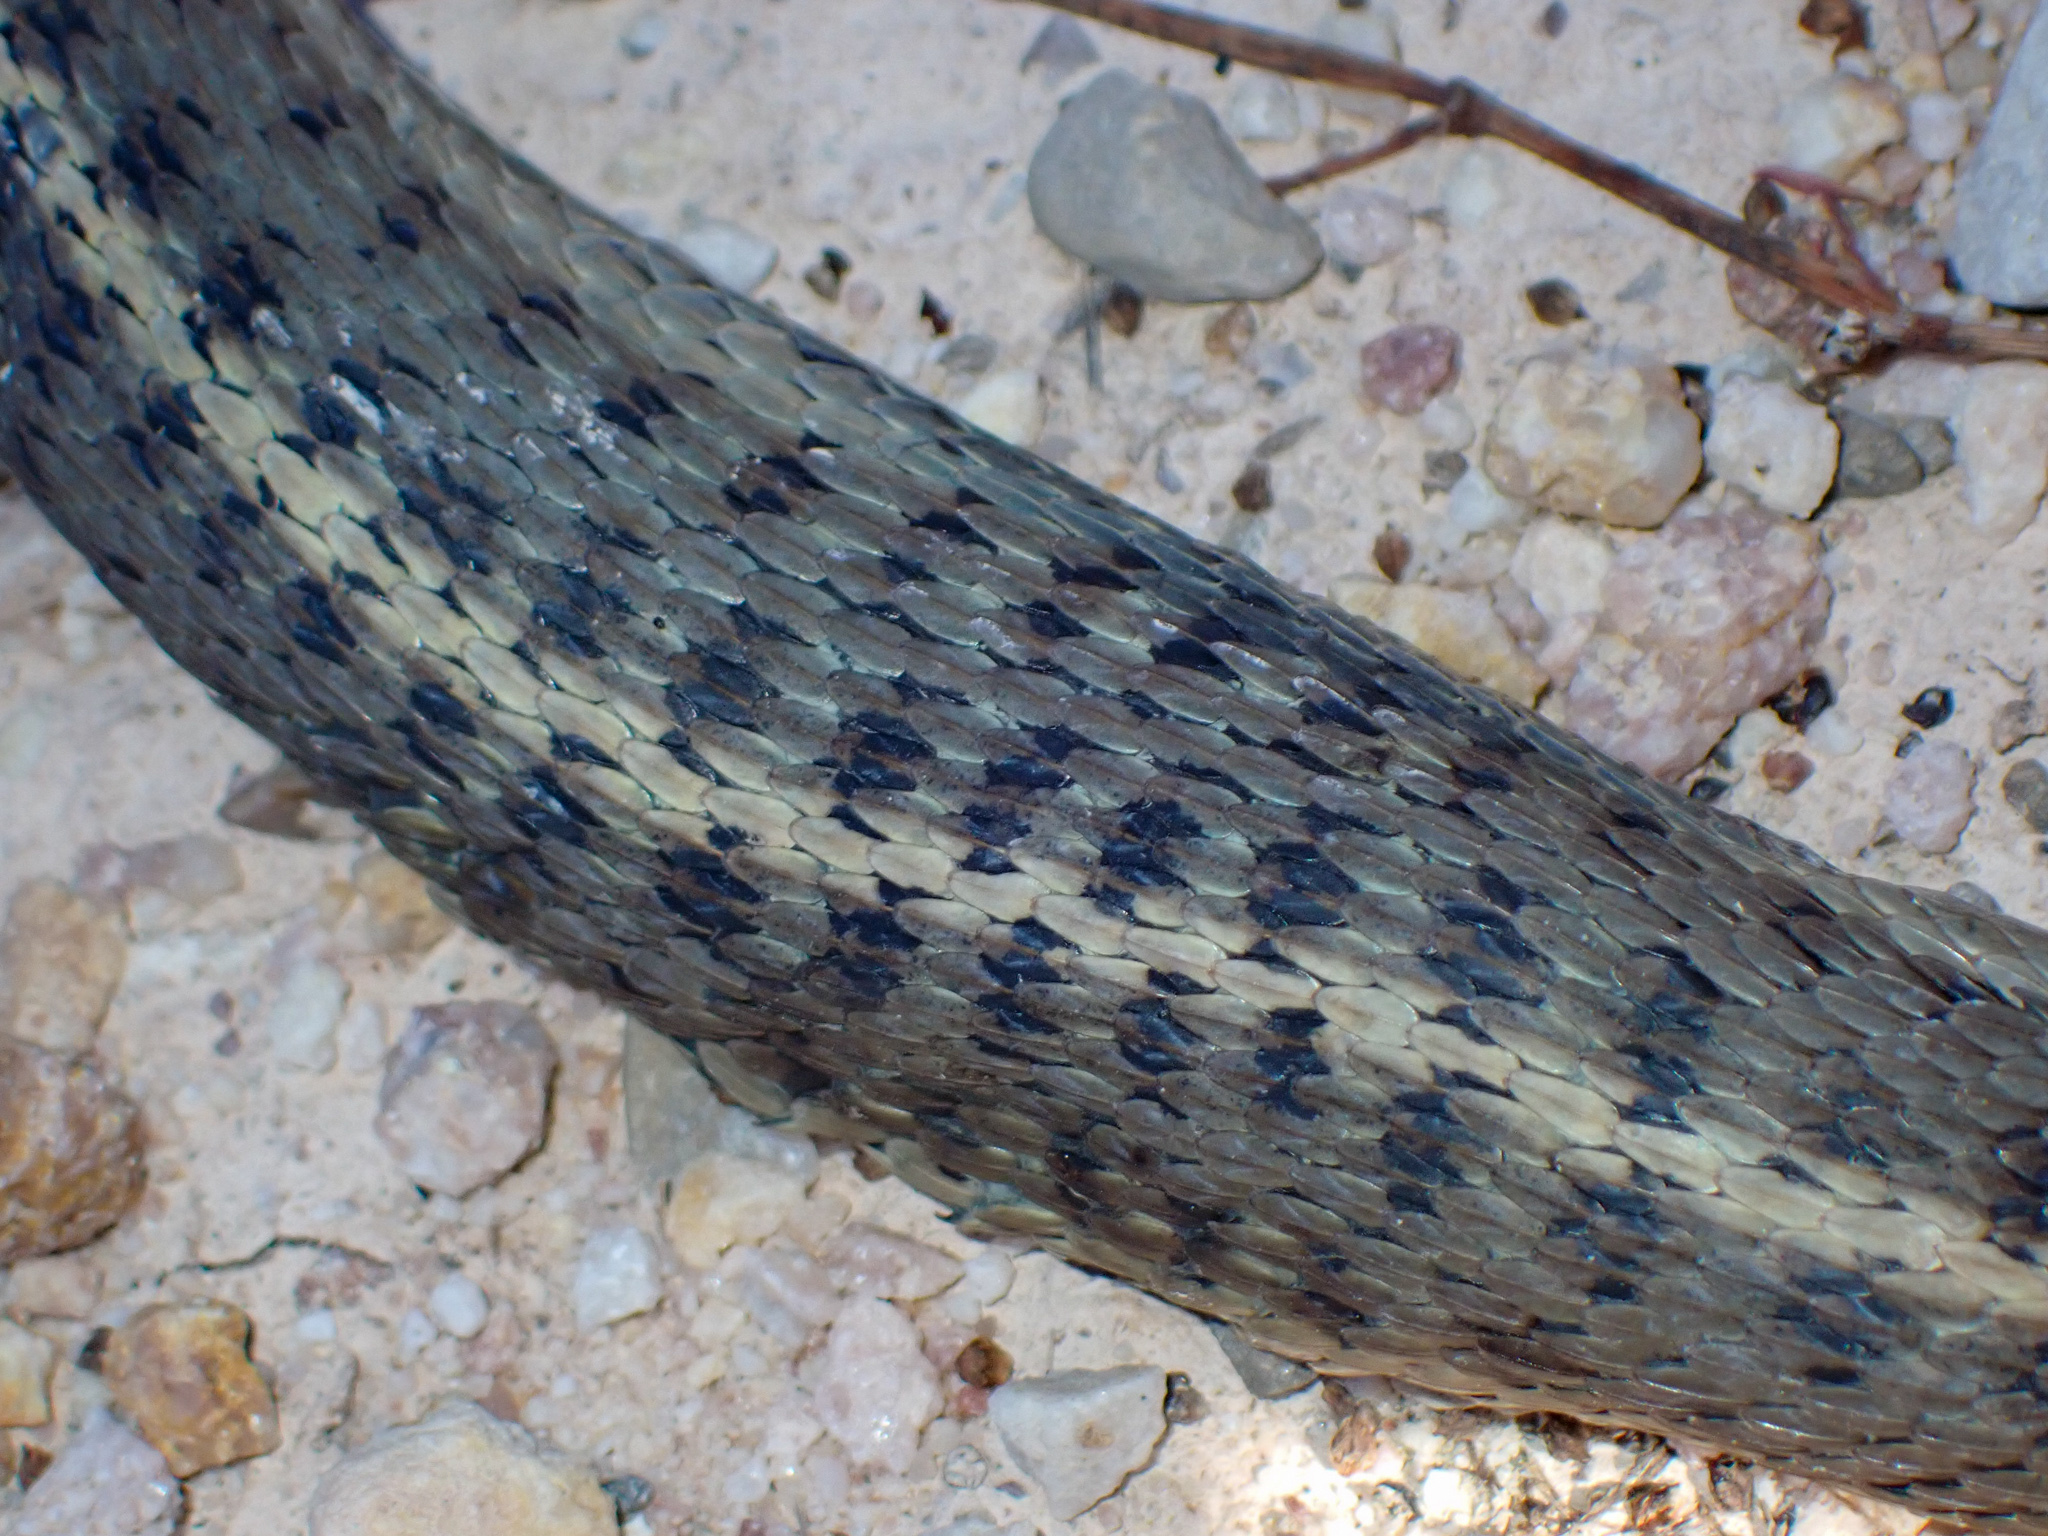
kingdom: Animalia
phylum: Chordata
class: Squamata
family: Colubridae
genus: Thamnophis
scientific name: Thamnophis elegans
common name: Western terrestrial garter snake
